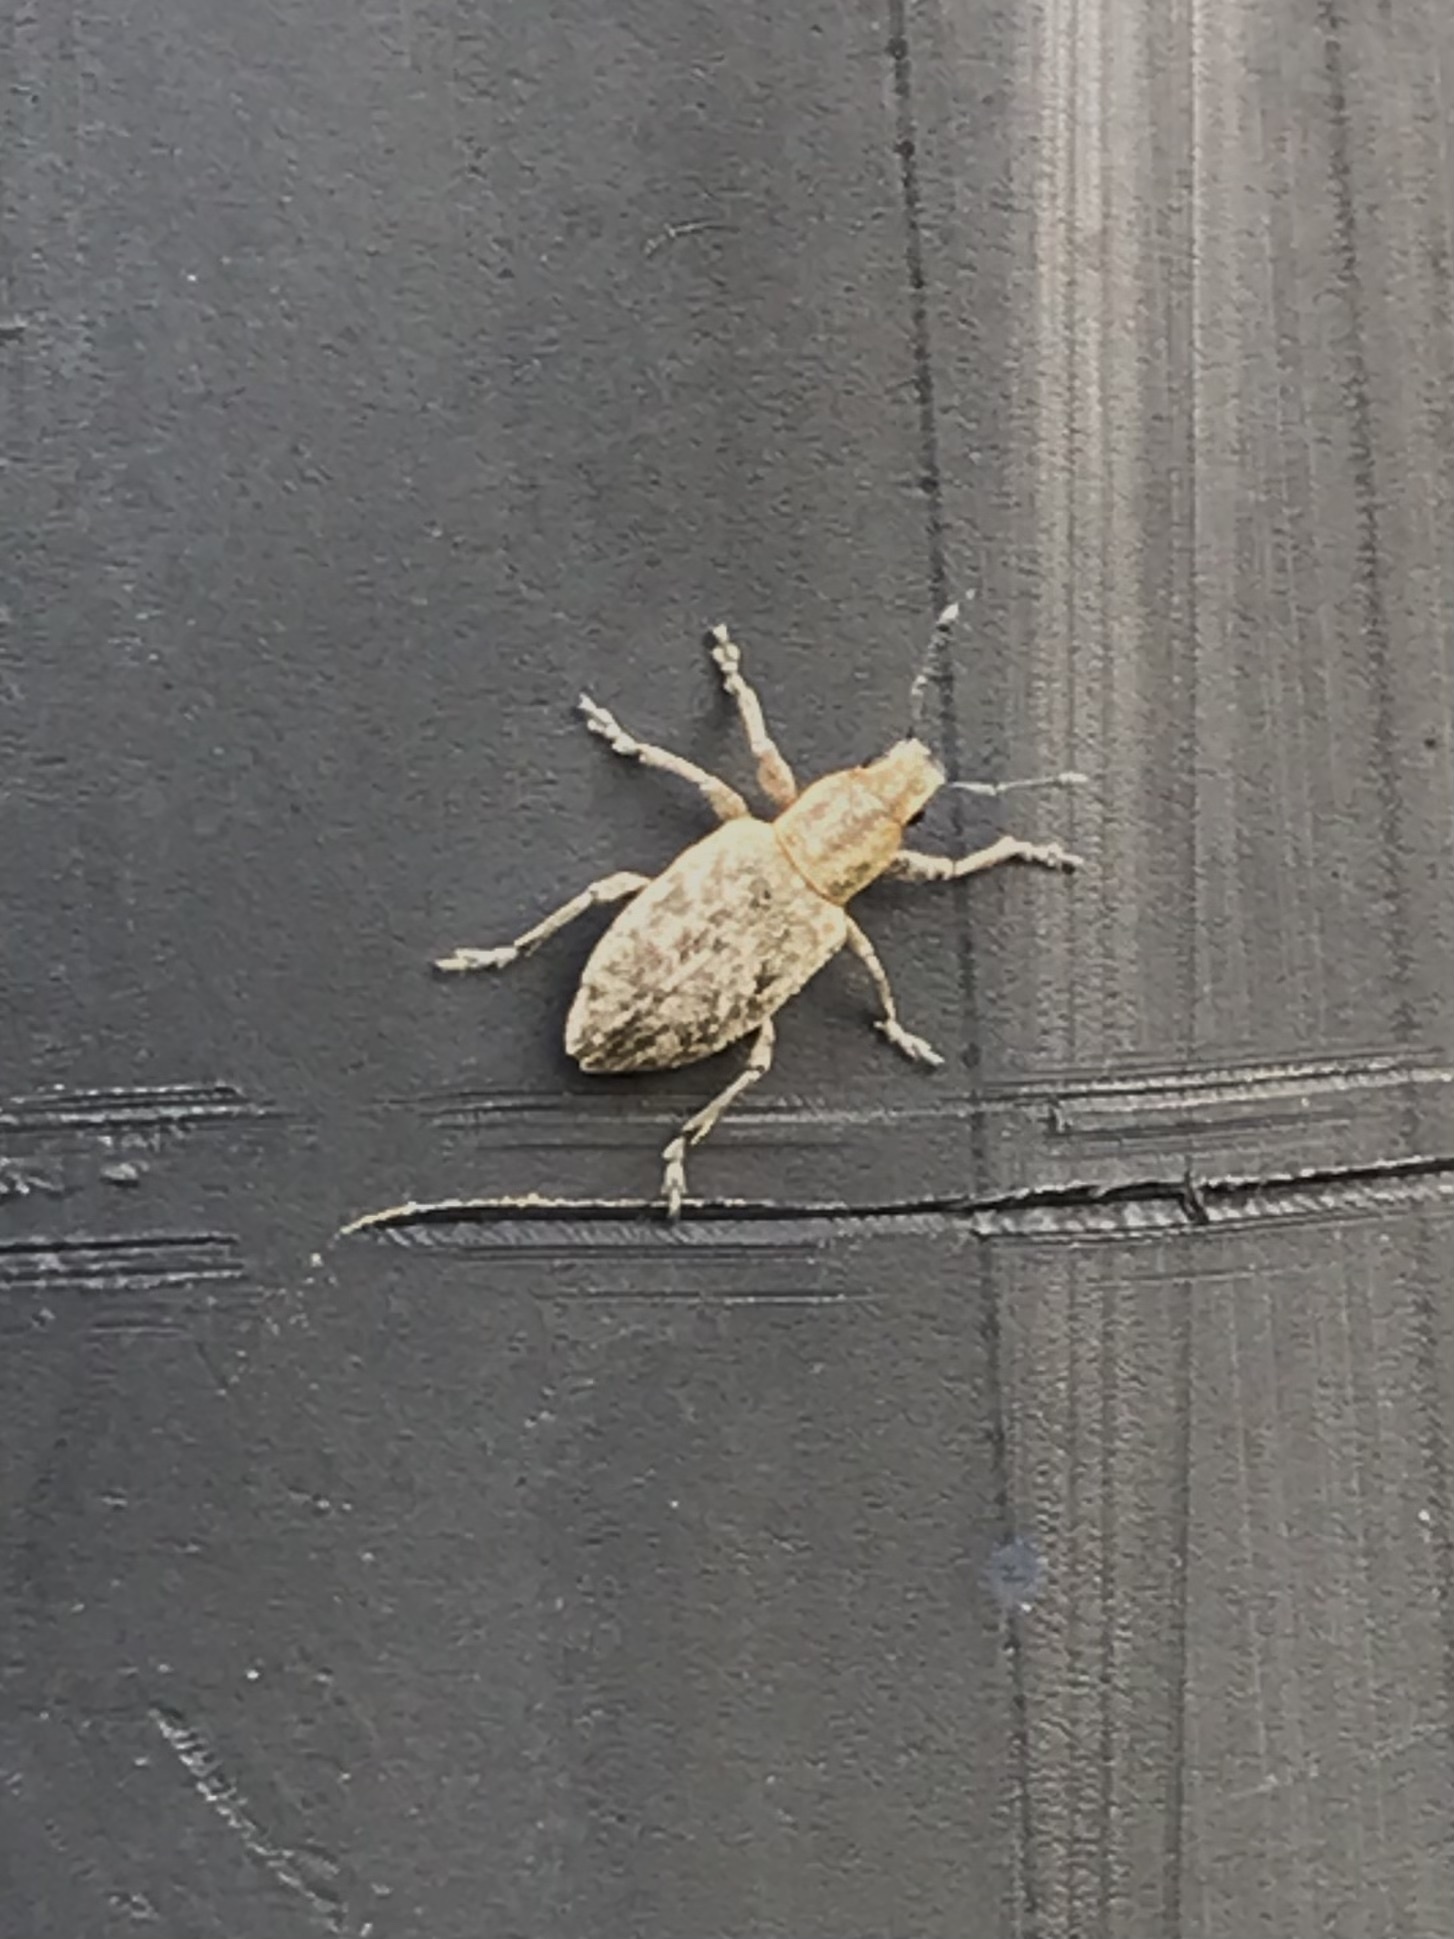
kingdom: Animalia
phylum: Arthropoda
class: Insecta
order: Coleoptera
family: Curculionidae
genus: Tanymecus
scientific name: Tanymecus confusus
